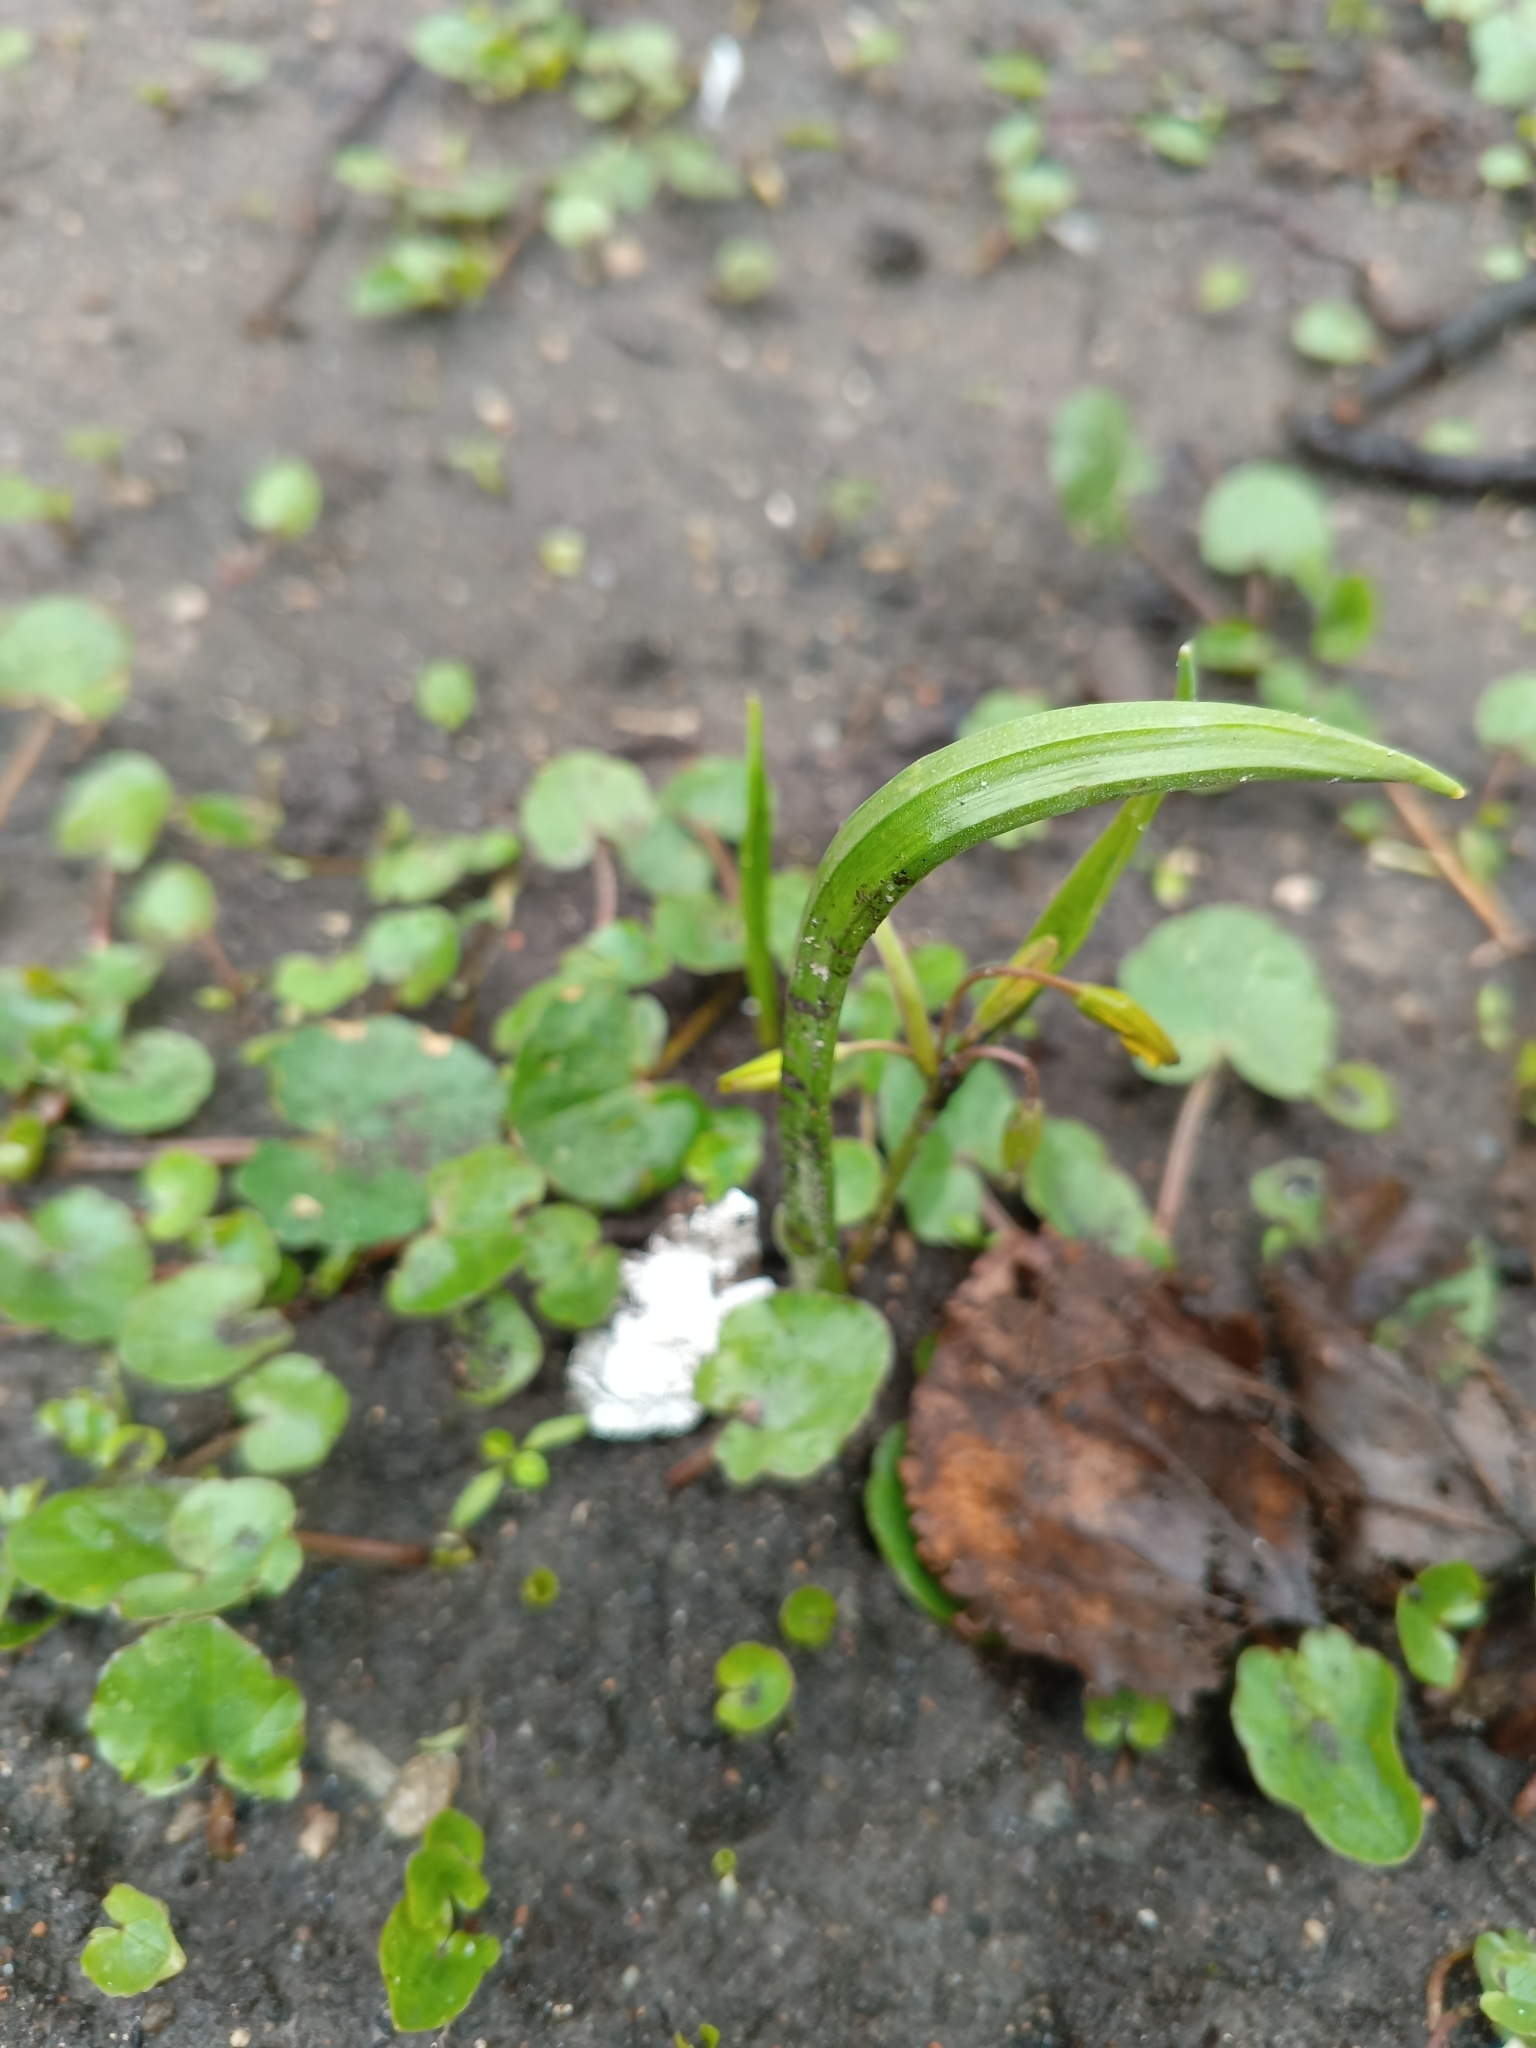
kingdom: Plantae
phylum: Tracheophyta
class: Liliopsida
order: Liliales
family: Liliaceae
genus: Gagea
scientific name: Gagea lutea
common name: Yellow star-of-bethlehem
